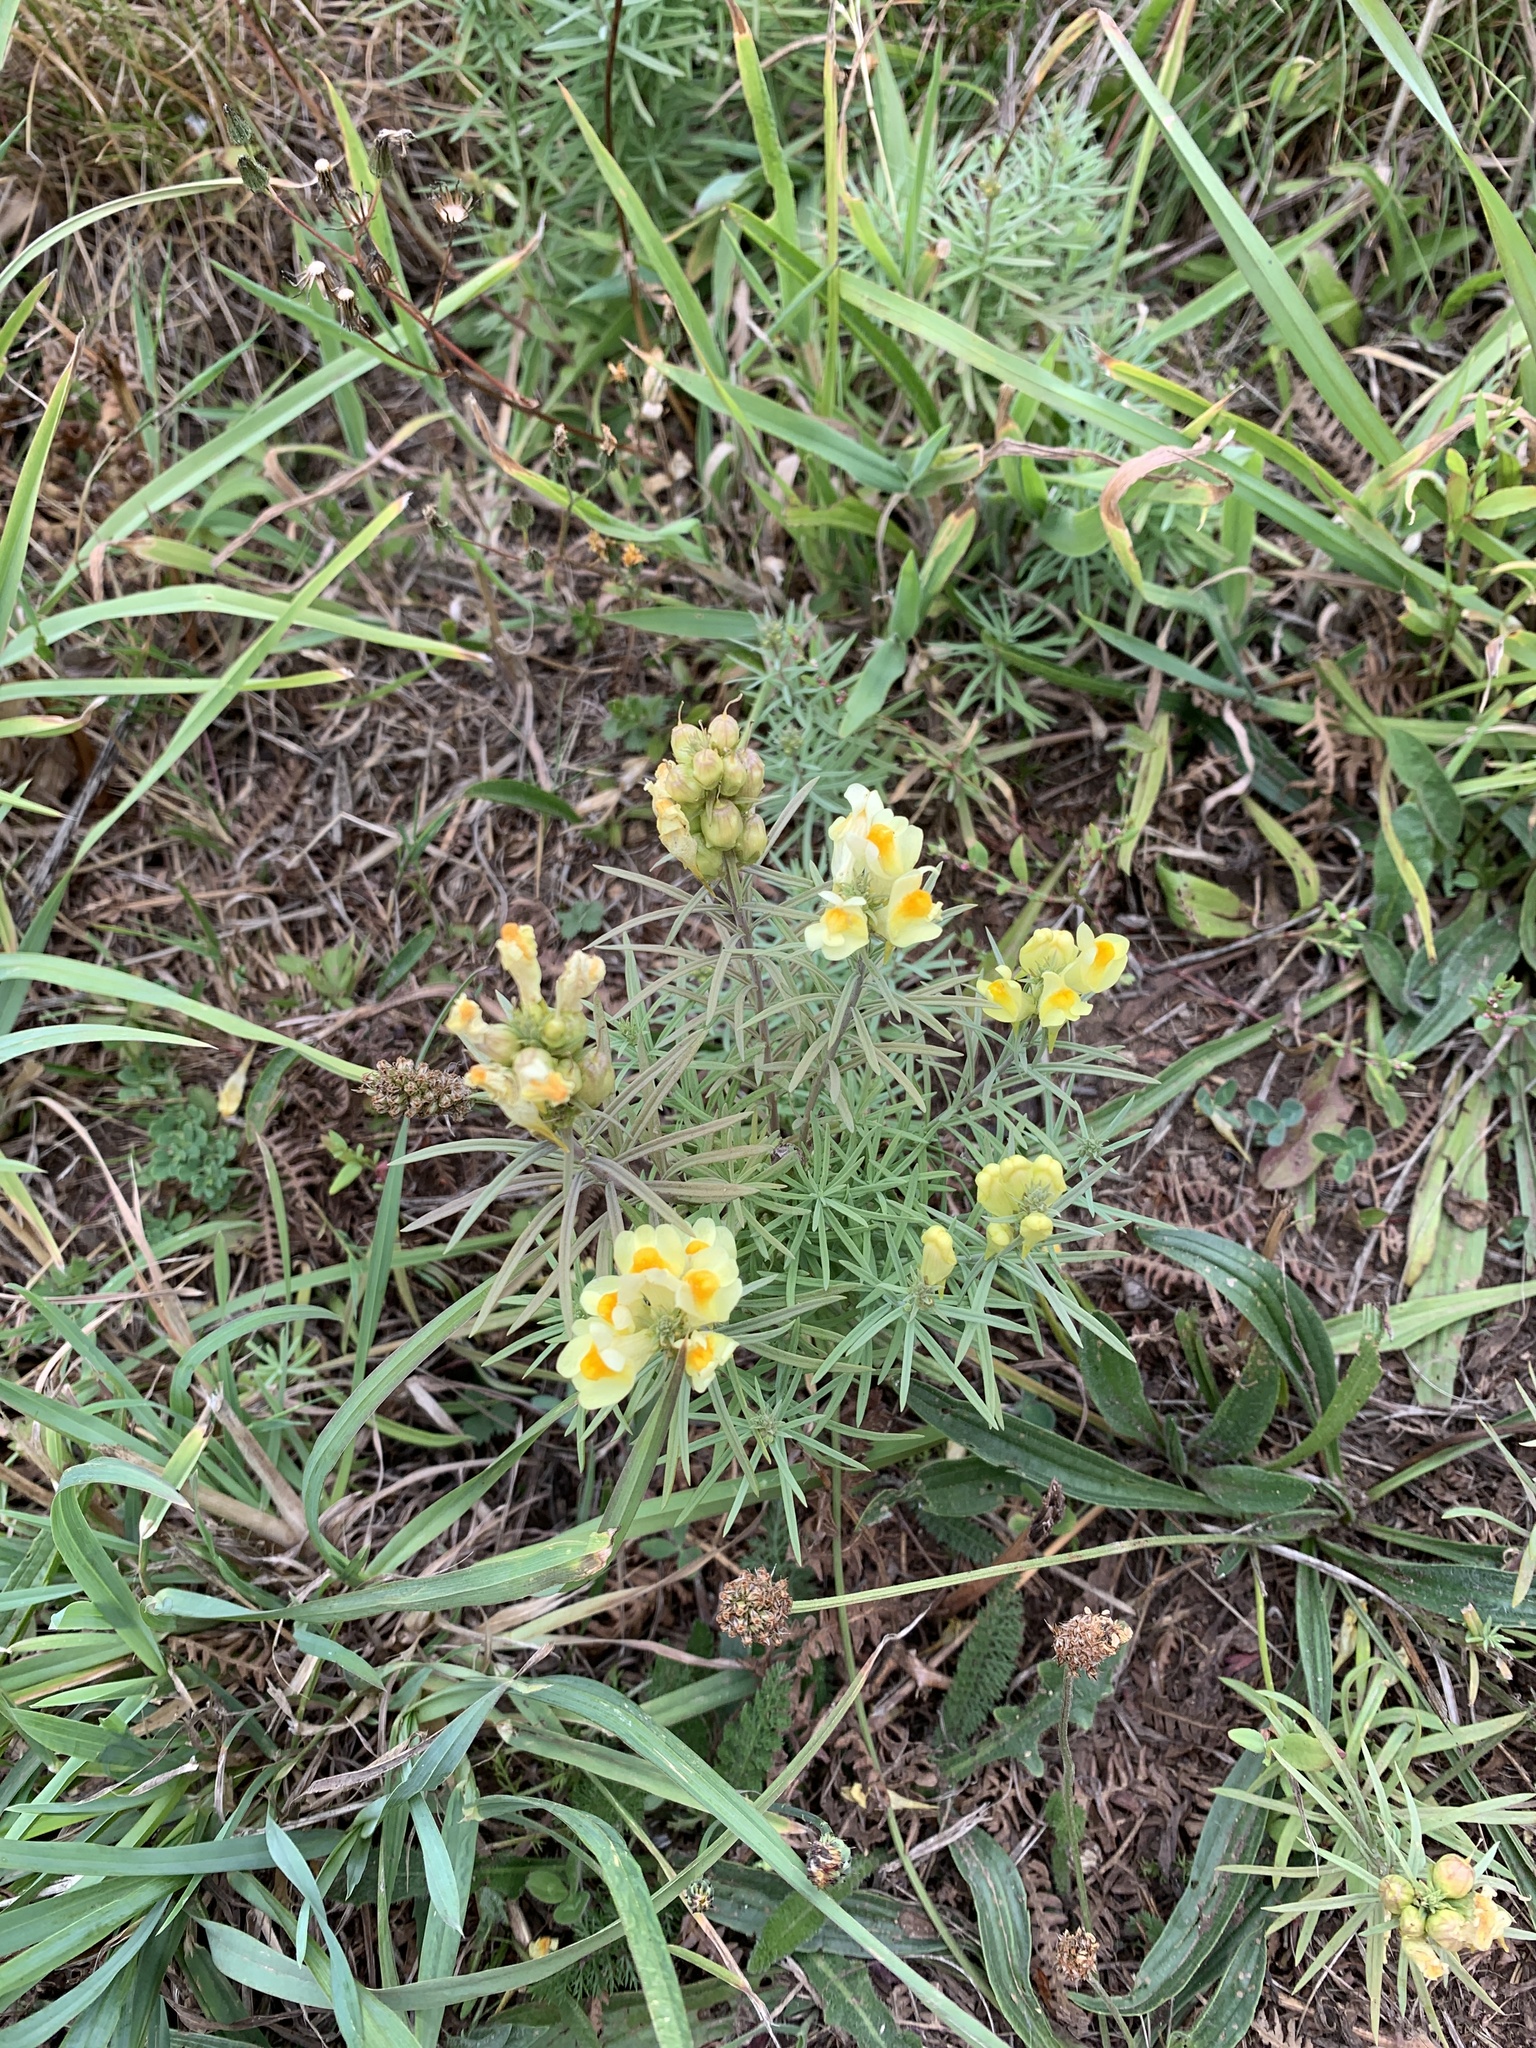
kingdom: Plantae
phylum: Tracheophyta
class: Magnoliopsida
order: Lamiales
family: Plantaginaceae
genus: Linaria
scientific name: Linaria vulgaris
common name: Butter and eggs
